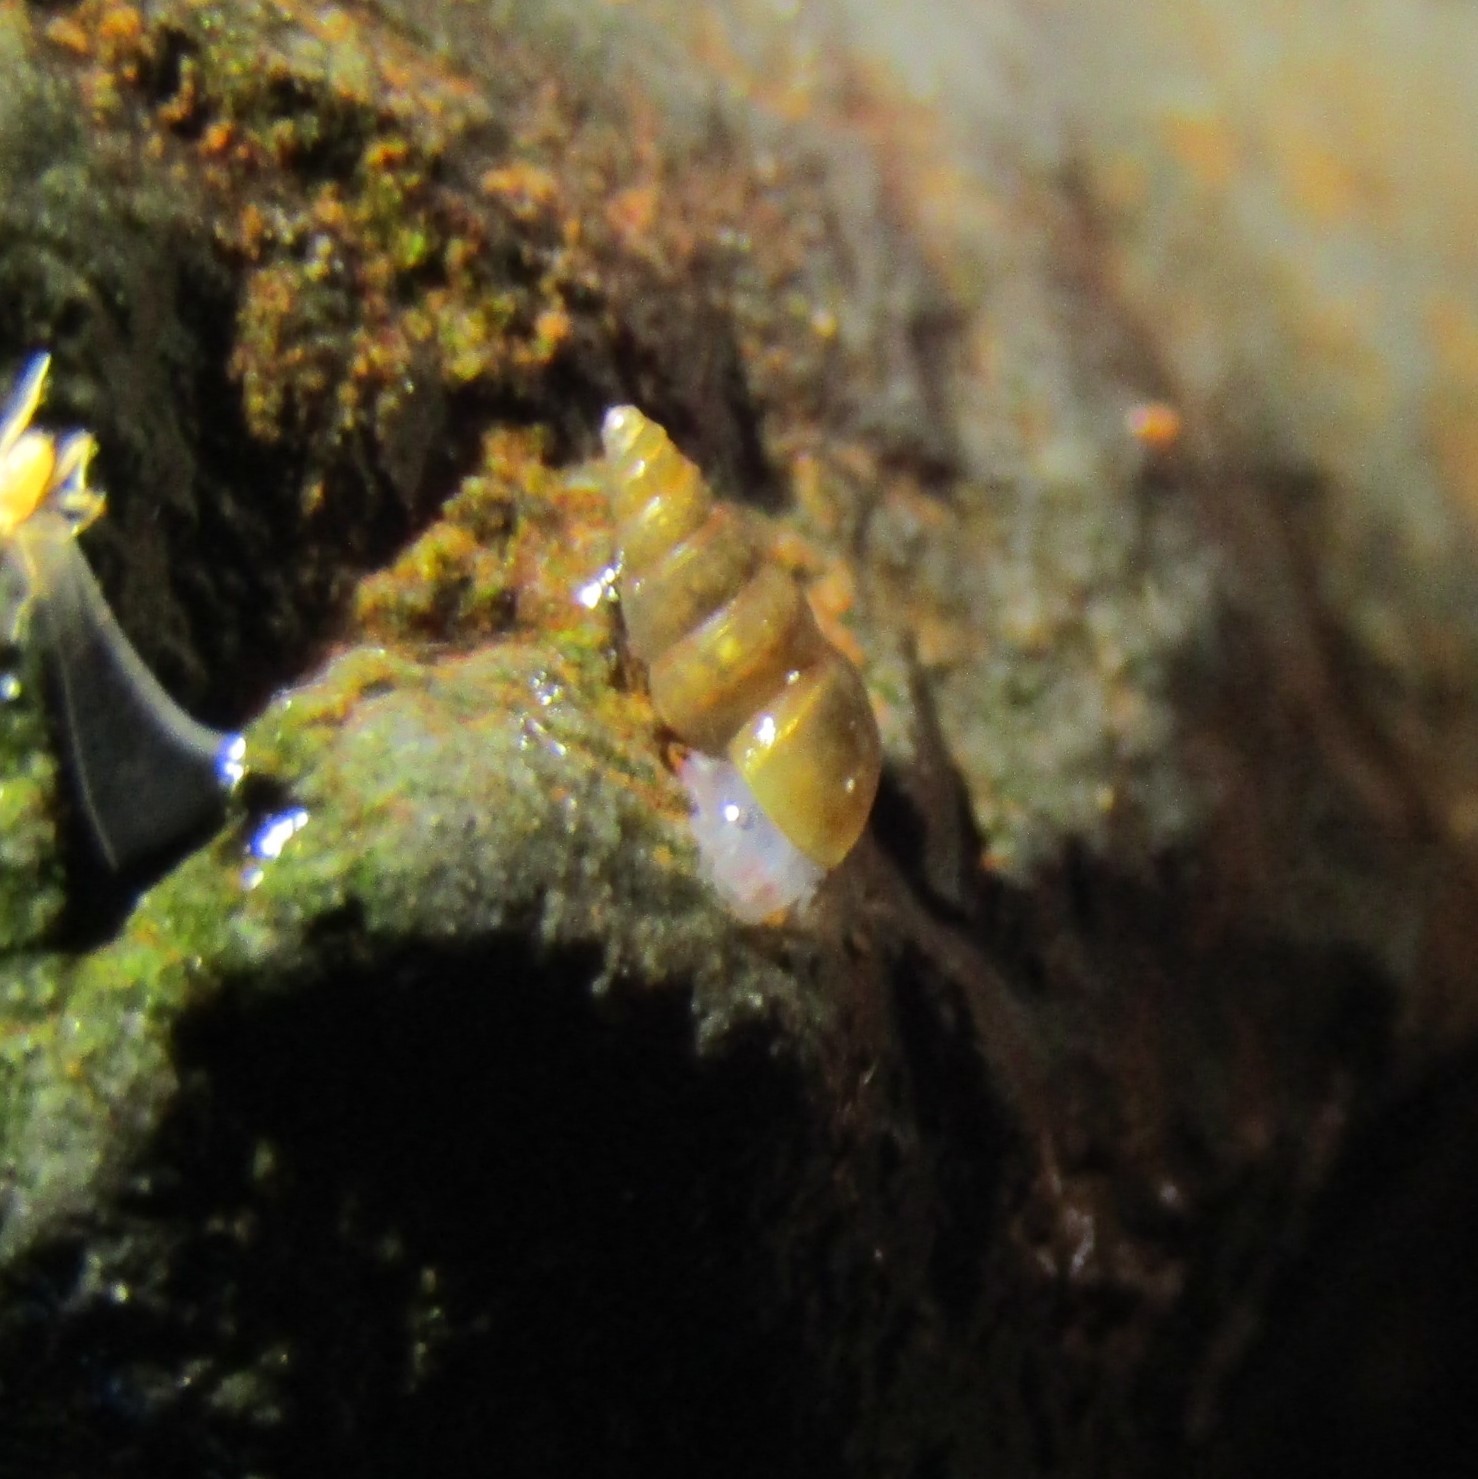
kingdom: Animalia
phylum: Mollusca
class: Gastropoda
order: Littorinimorpha
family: Tateidae
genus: Potamopyrgus
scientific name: Potamopyrgus oppidanus
